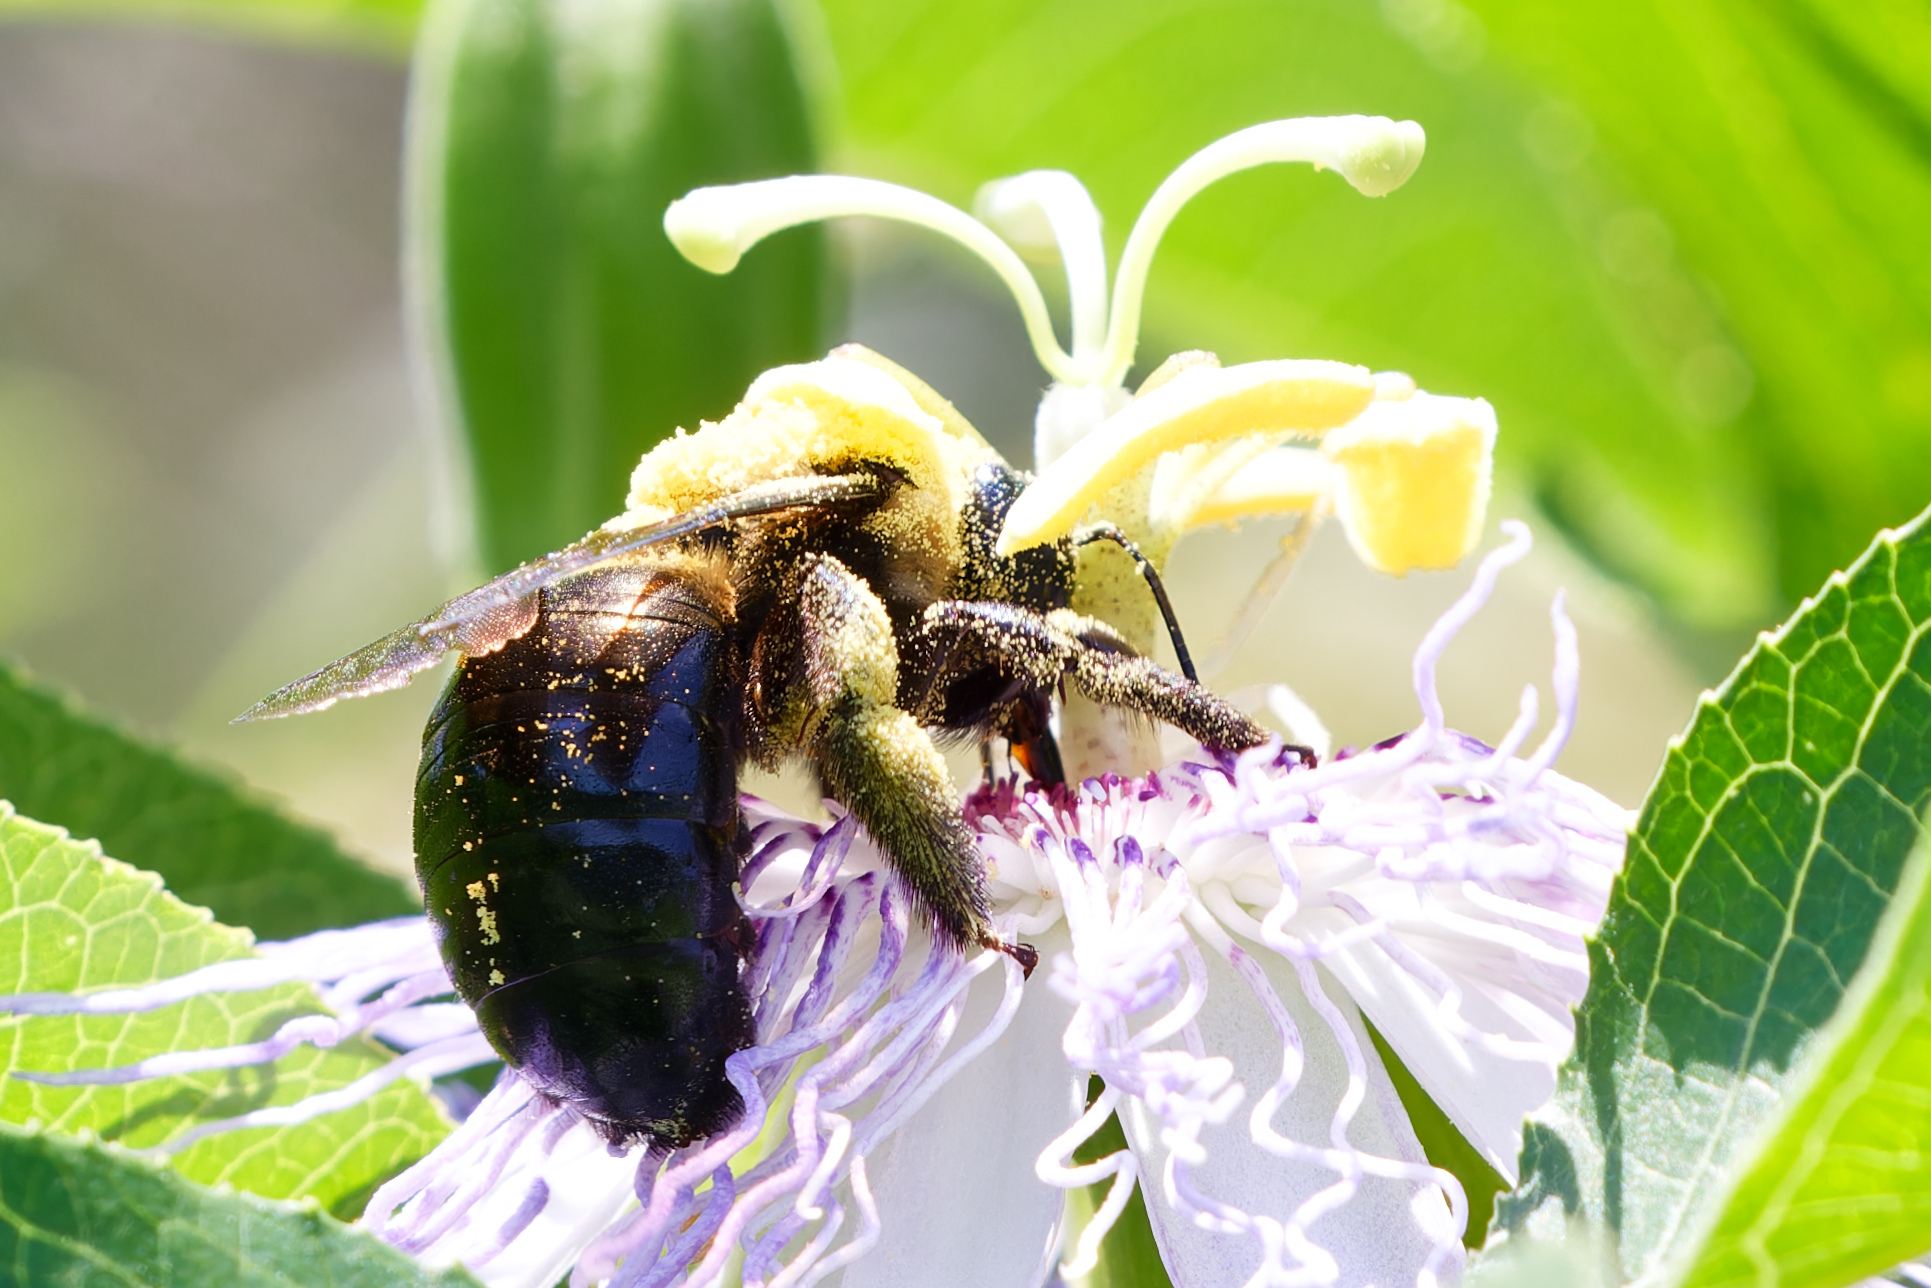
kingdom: Animalia
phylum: Arthropoda
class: Insecta
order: Hymenoptera
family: Apidae
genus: Xylocopa
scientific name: Xylocopa virginica
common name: Carpenter bee
